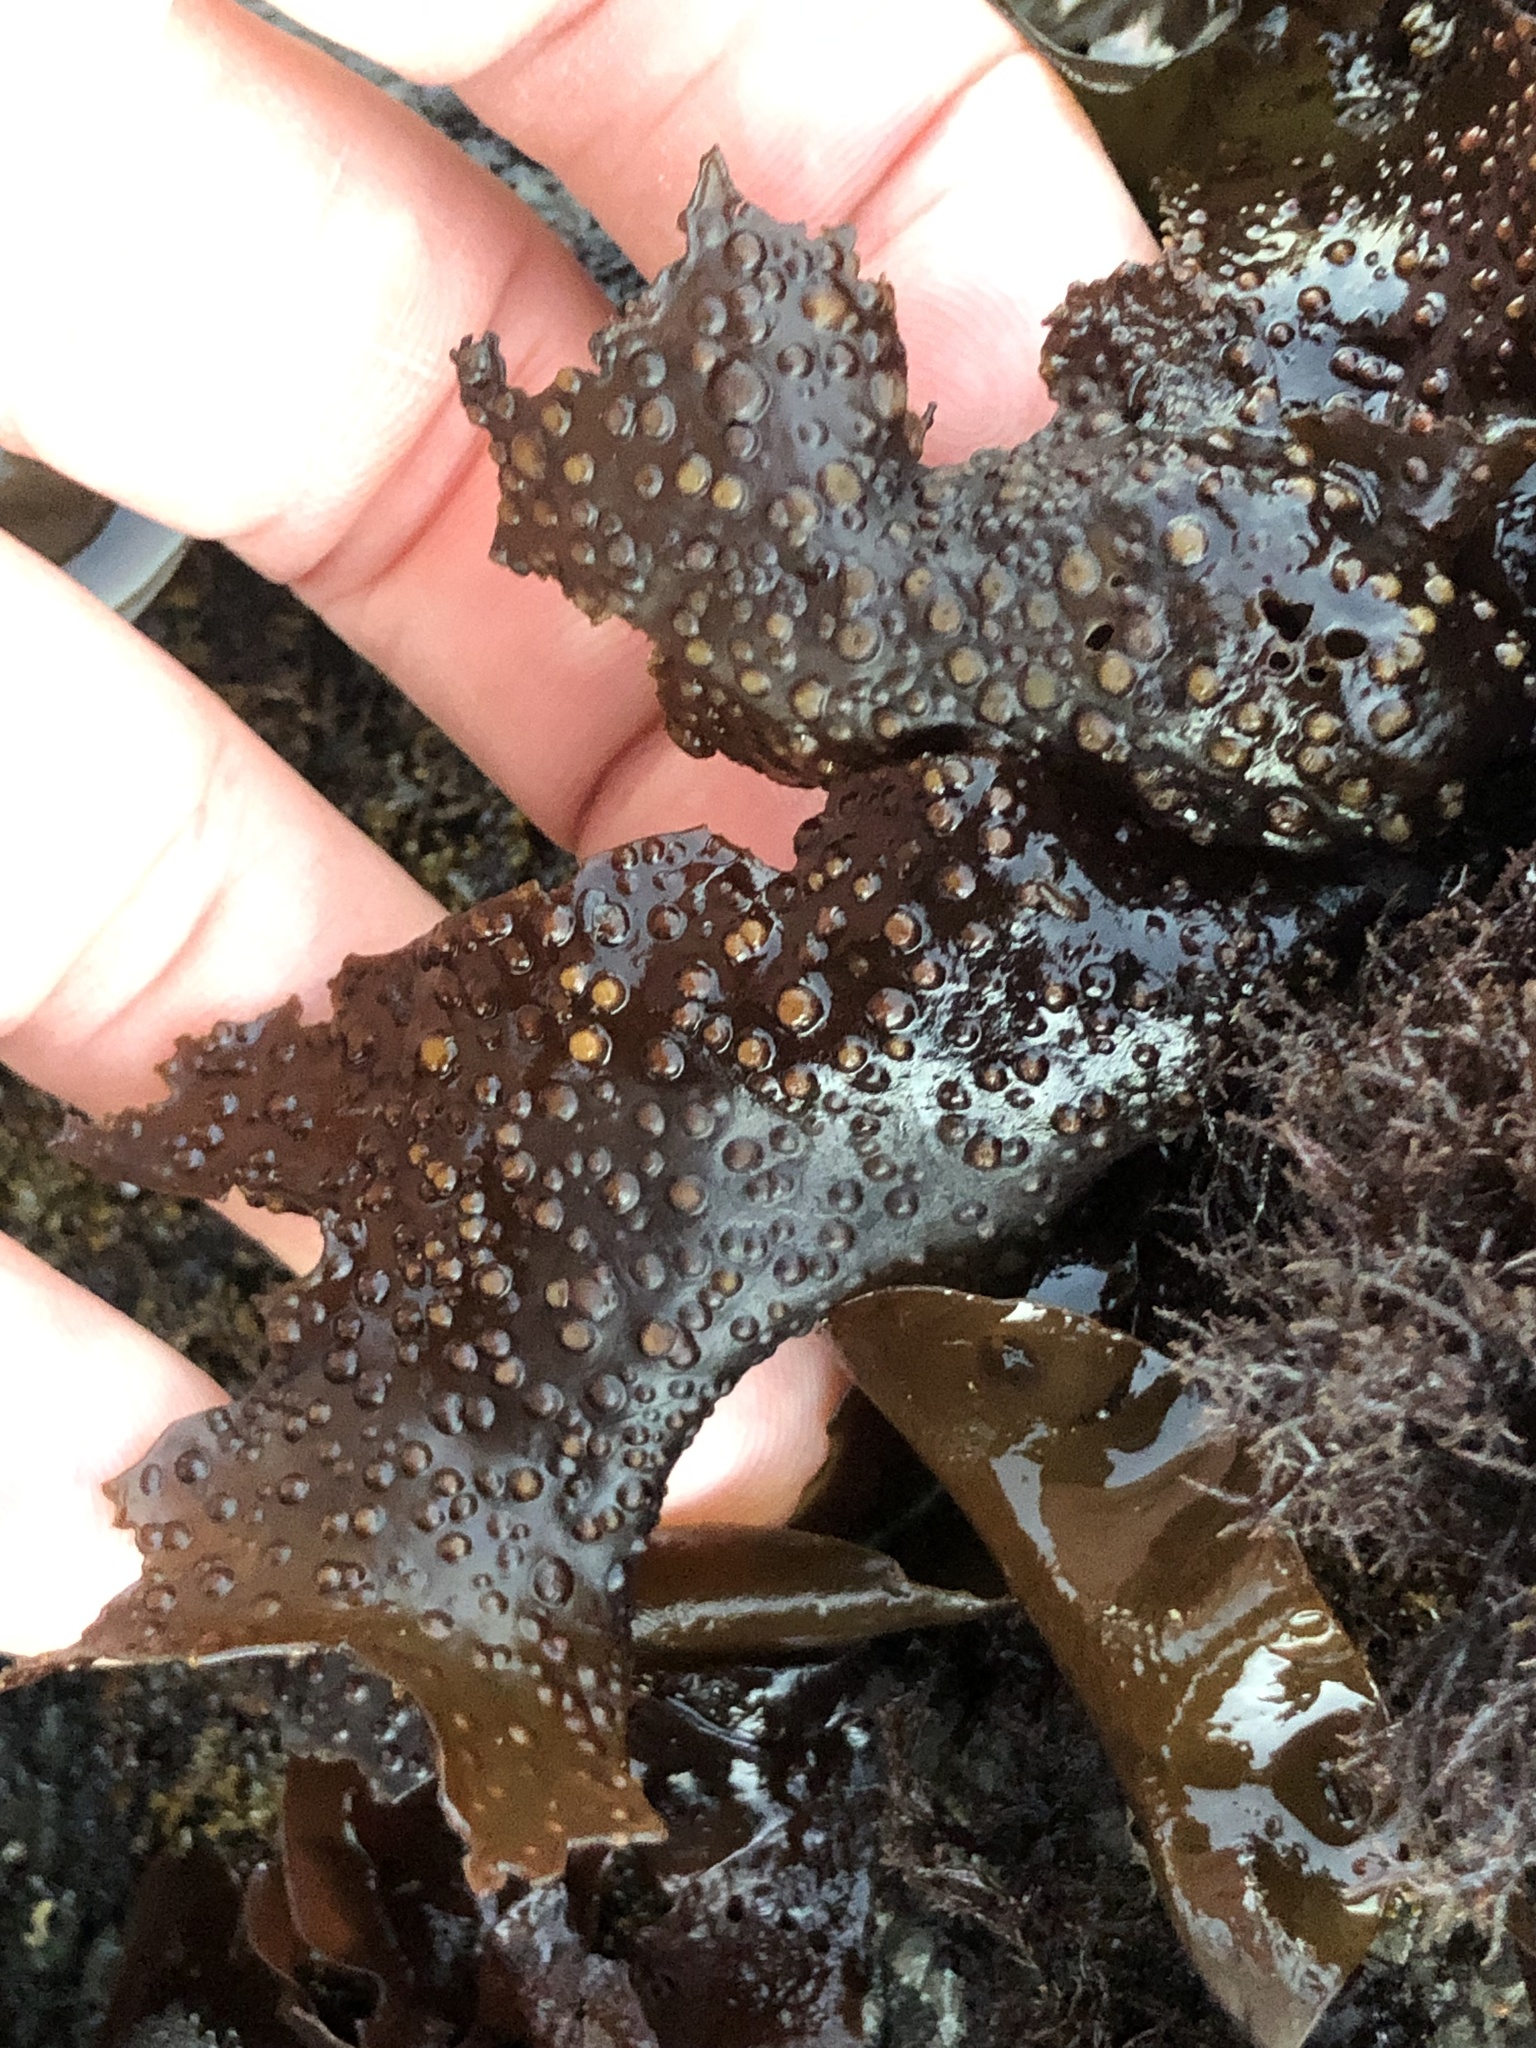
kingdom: Plantae
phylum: Rhodophyta
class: Florideophyceae
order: Gigartinales
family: Gigartinaceae
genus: Mazzaella
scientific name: Mazzaella oregona
